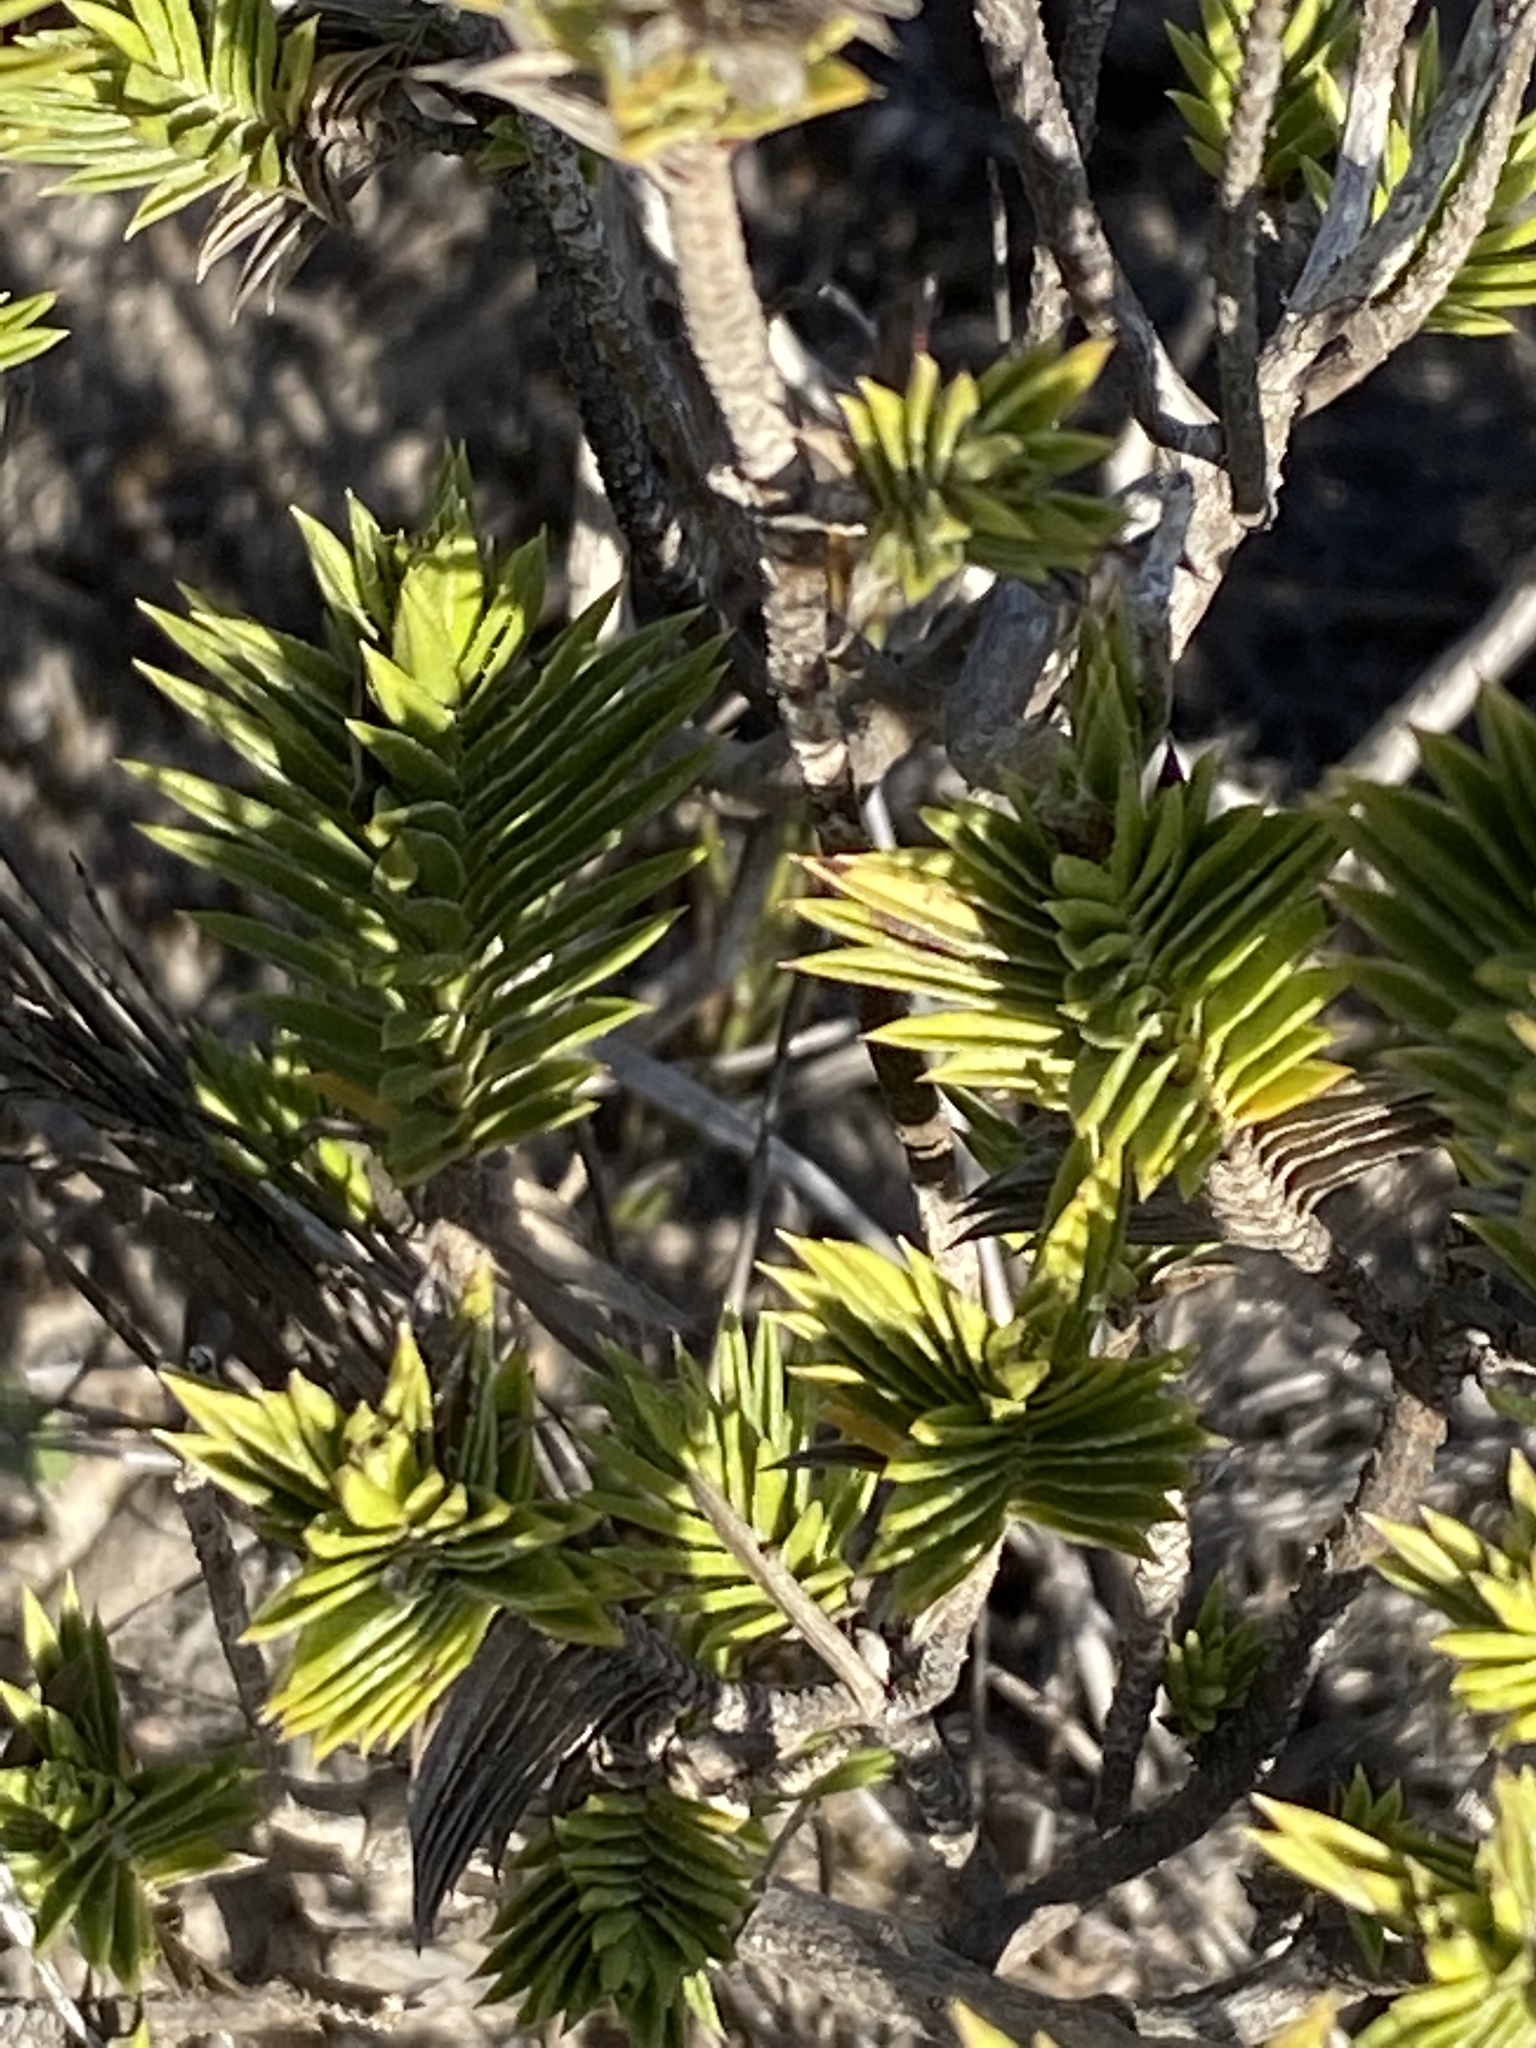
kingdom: Plantae
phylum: Tracheophyta
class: Magnoliopsida
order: Asterales
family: Asteraceae
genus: Oedera
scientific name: Oedera steyniae
